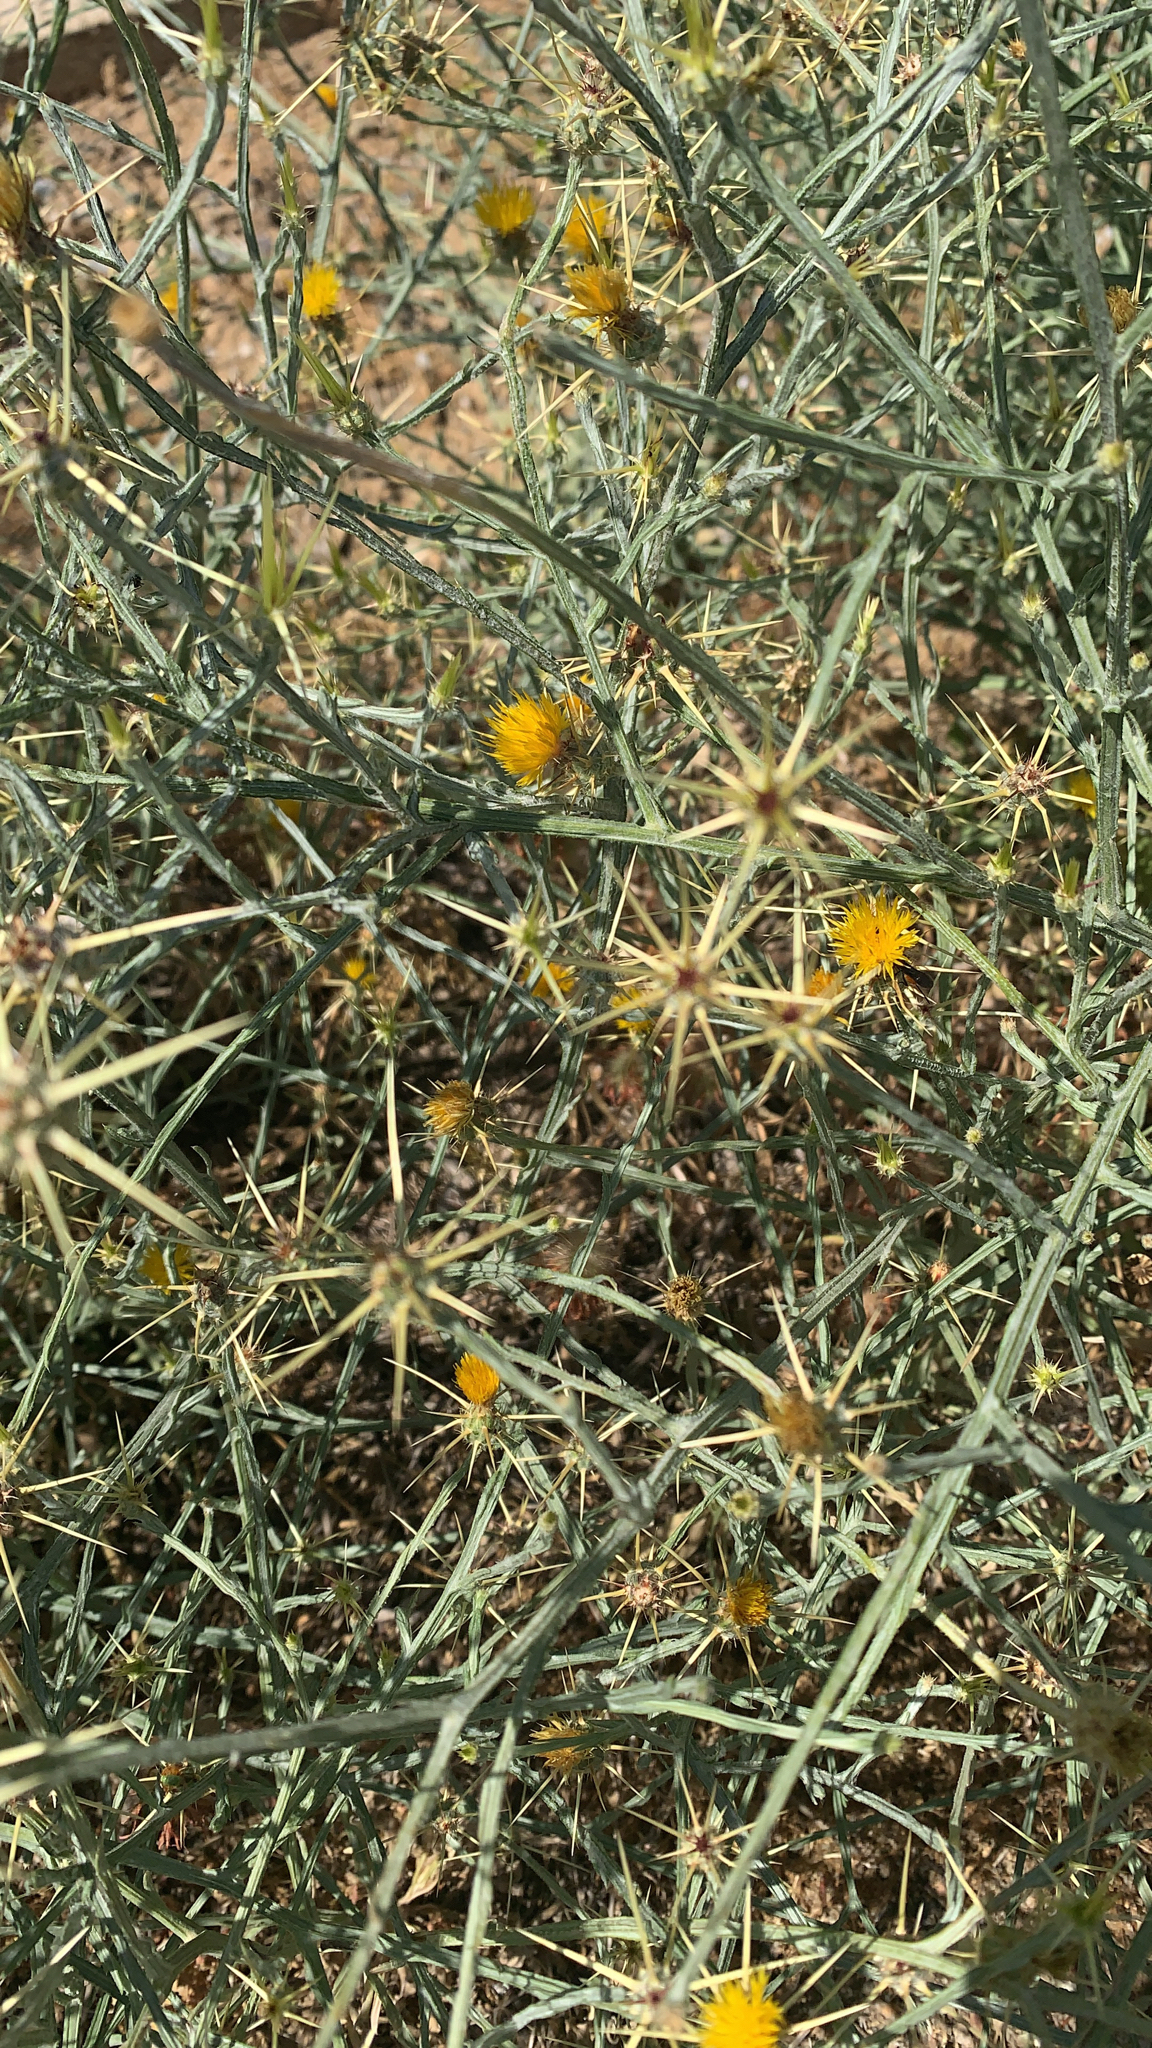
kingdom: Plantae
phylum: Tracheophyta
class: Magnoliopsida
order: Asterales
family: Asteraceae
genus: Centaurea
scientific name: Centaurea solstitialis
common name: Yellow star-thistle
